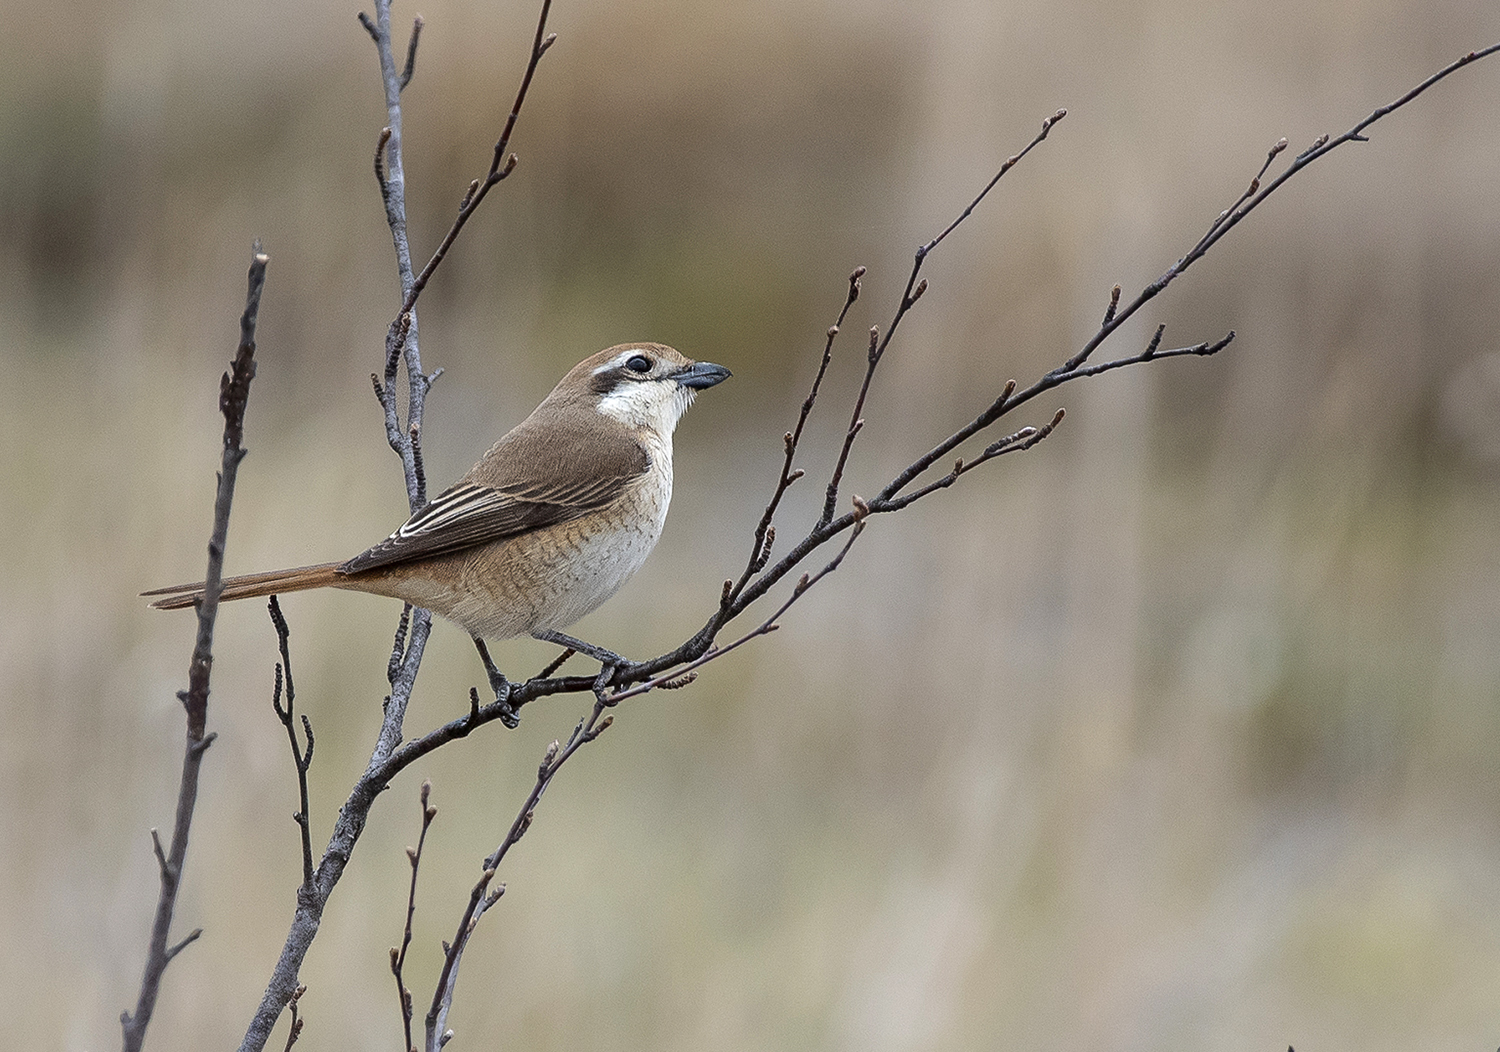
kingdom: Animalia
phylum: Chordata
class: Aves
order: Passeriformes
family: Laniidae
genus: Lanius
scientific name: Lanius cristatus
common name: Brown shrike
